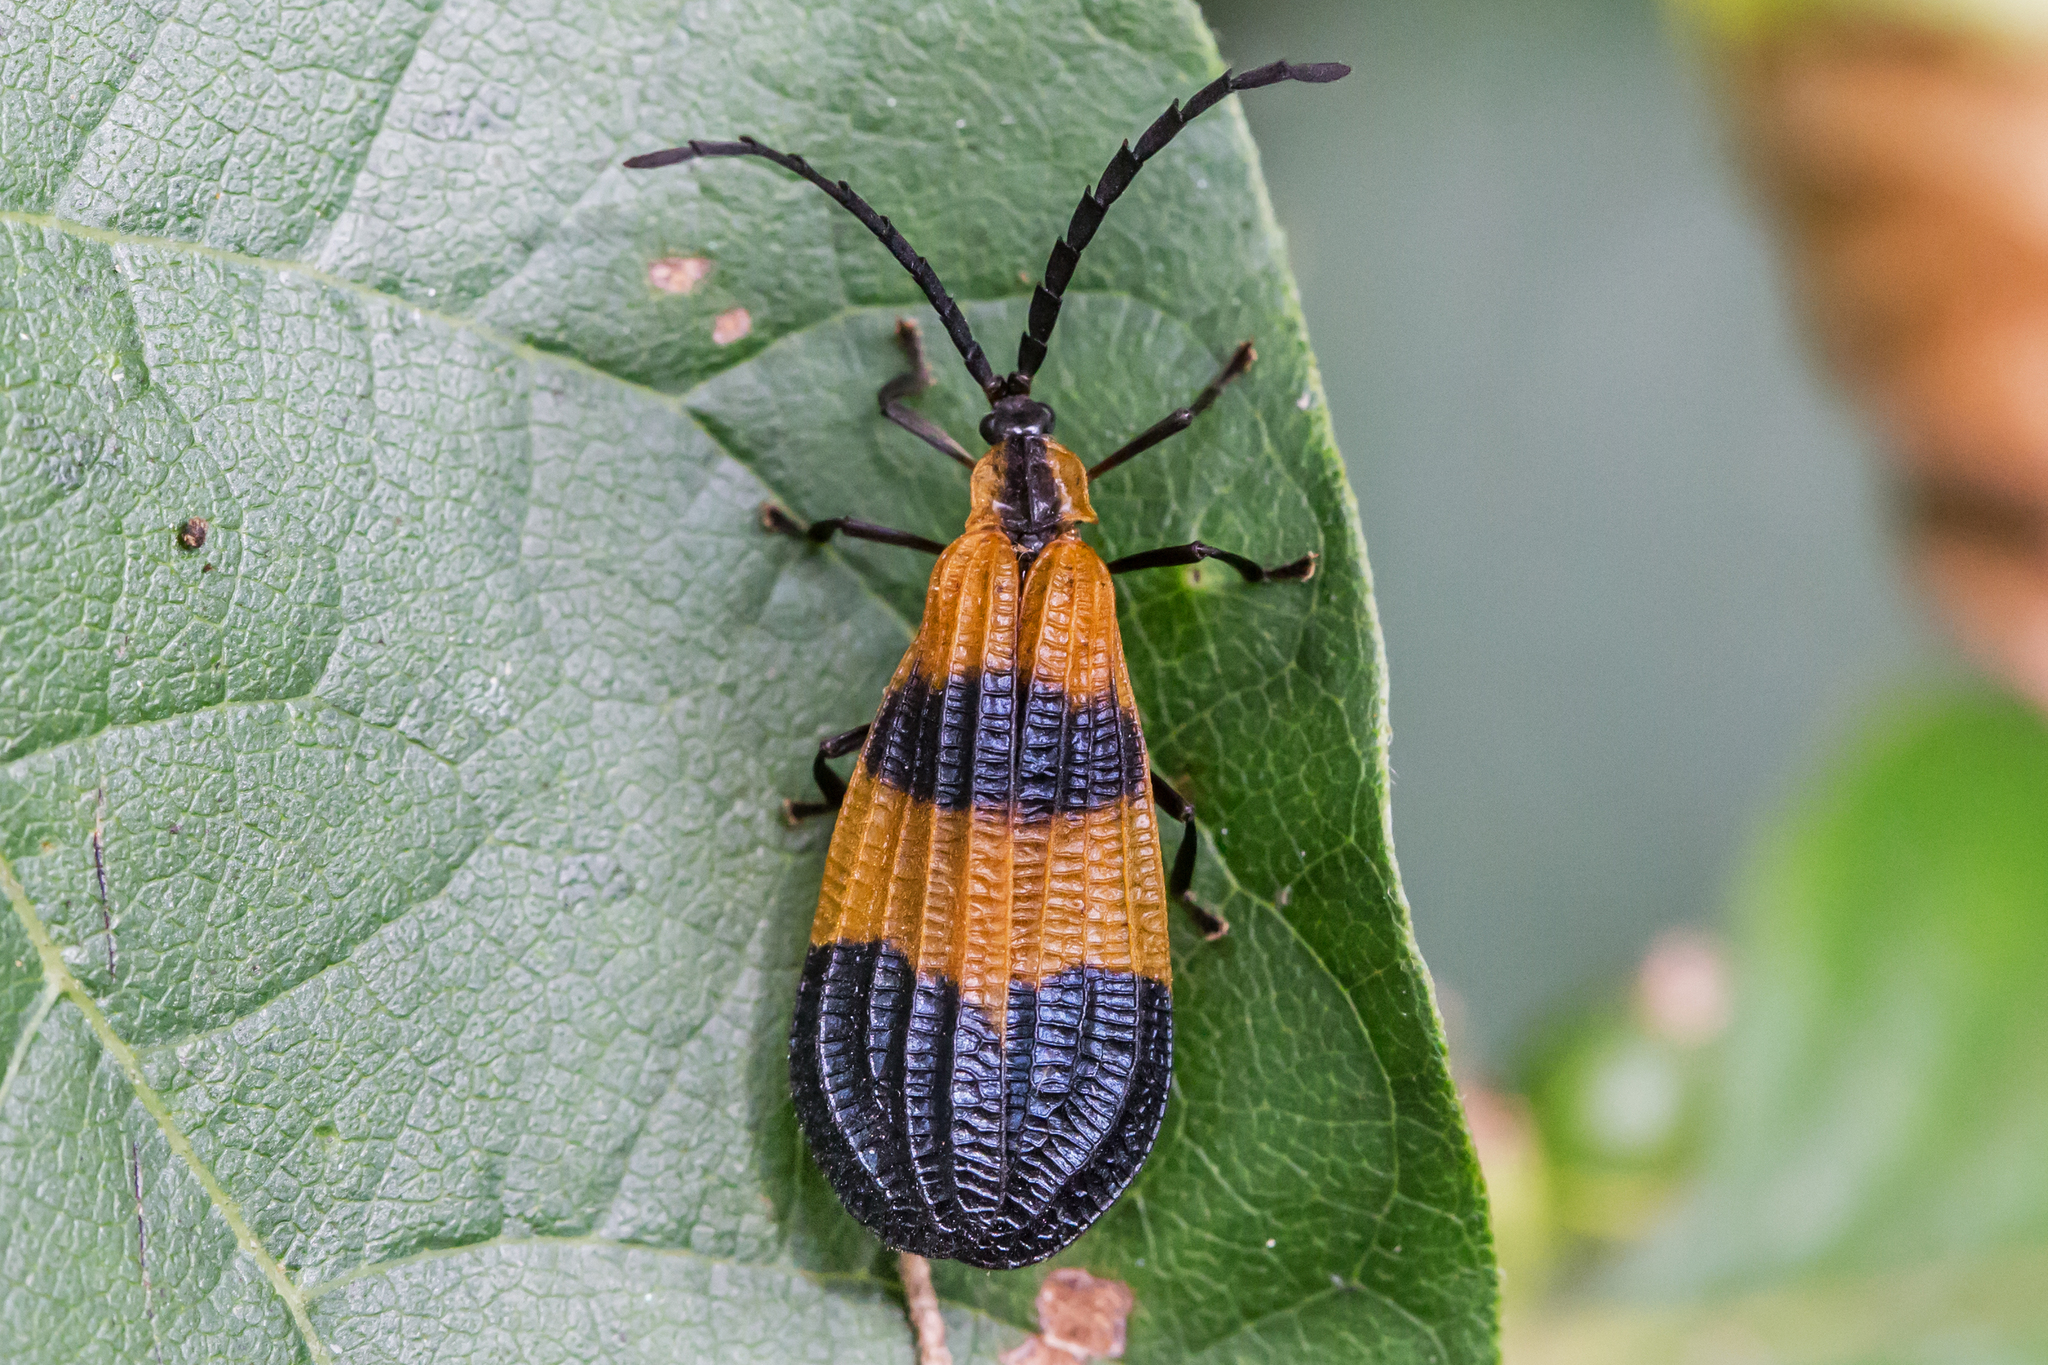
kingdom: Animalia
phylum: Arthropoda
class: Insecta
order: Coleoptera
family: Lycidae
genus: Calopteron
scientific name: Calopteron terminale
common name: End band net-winged beetle
